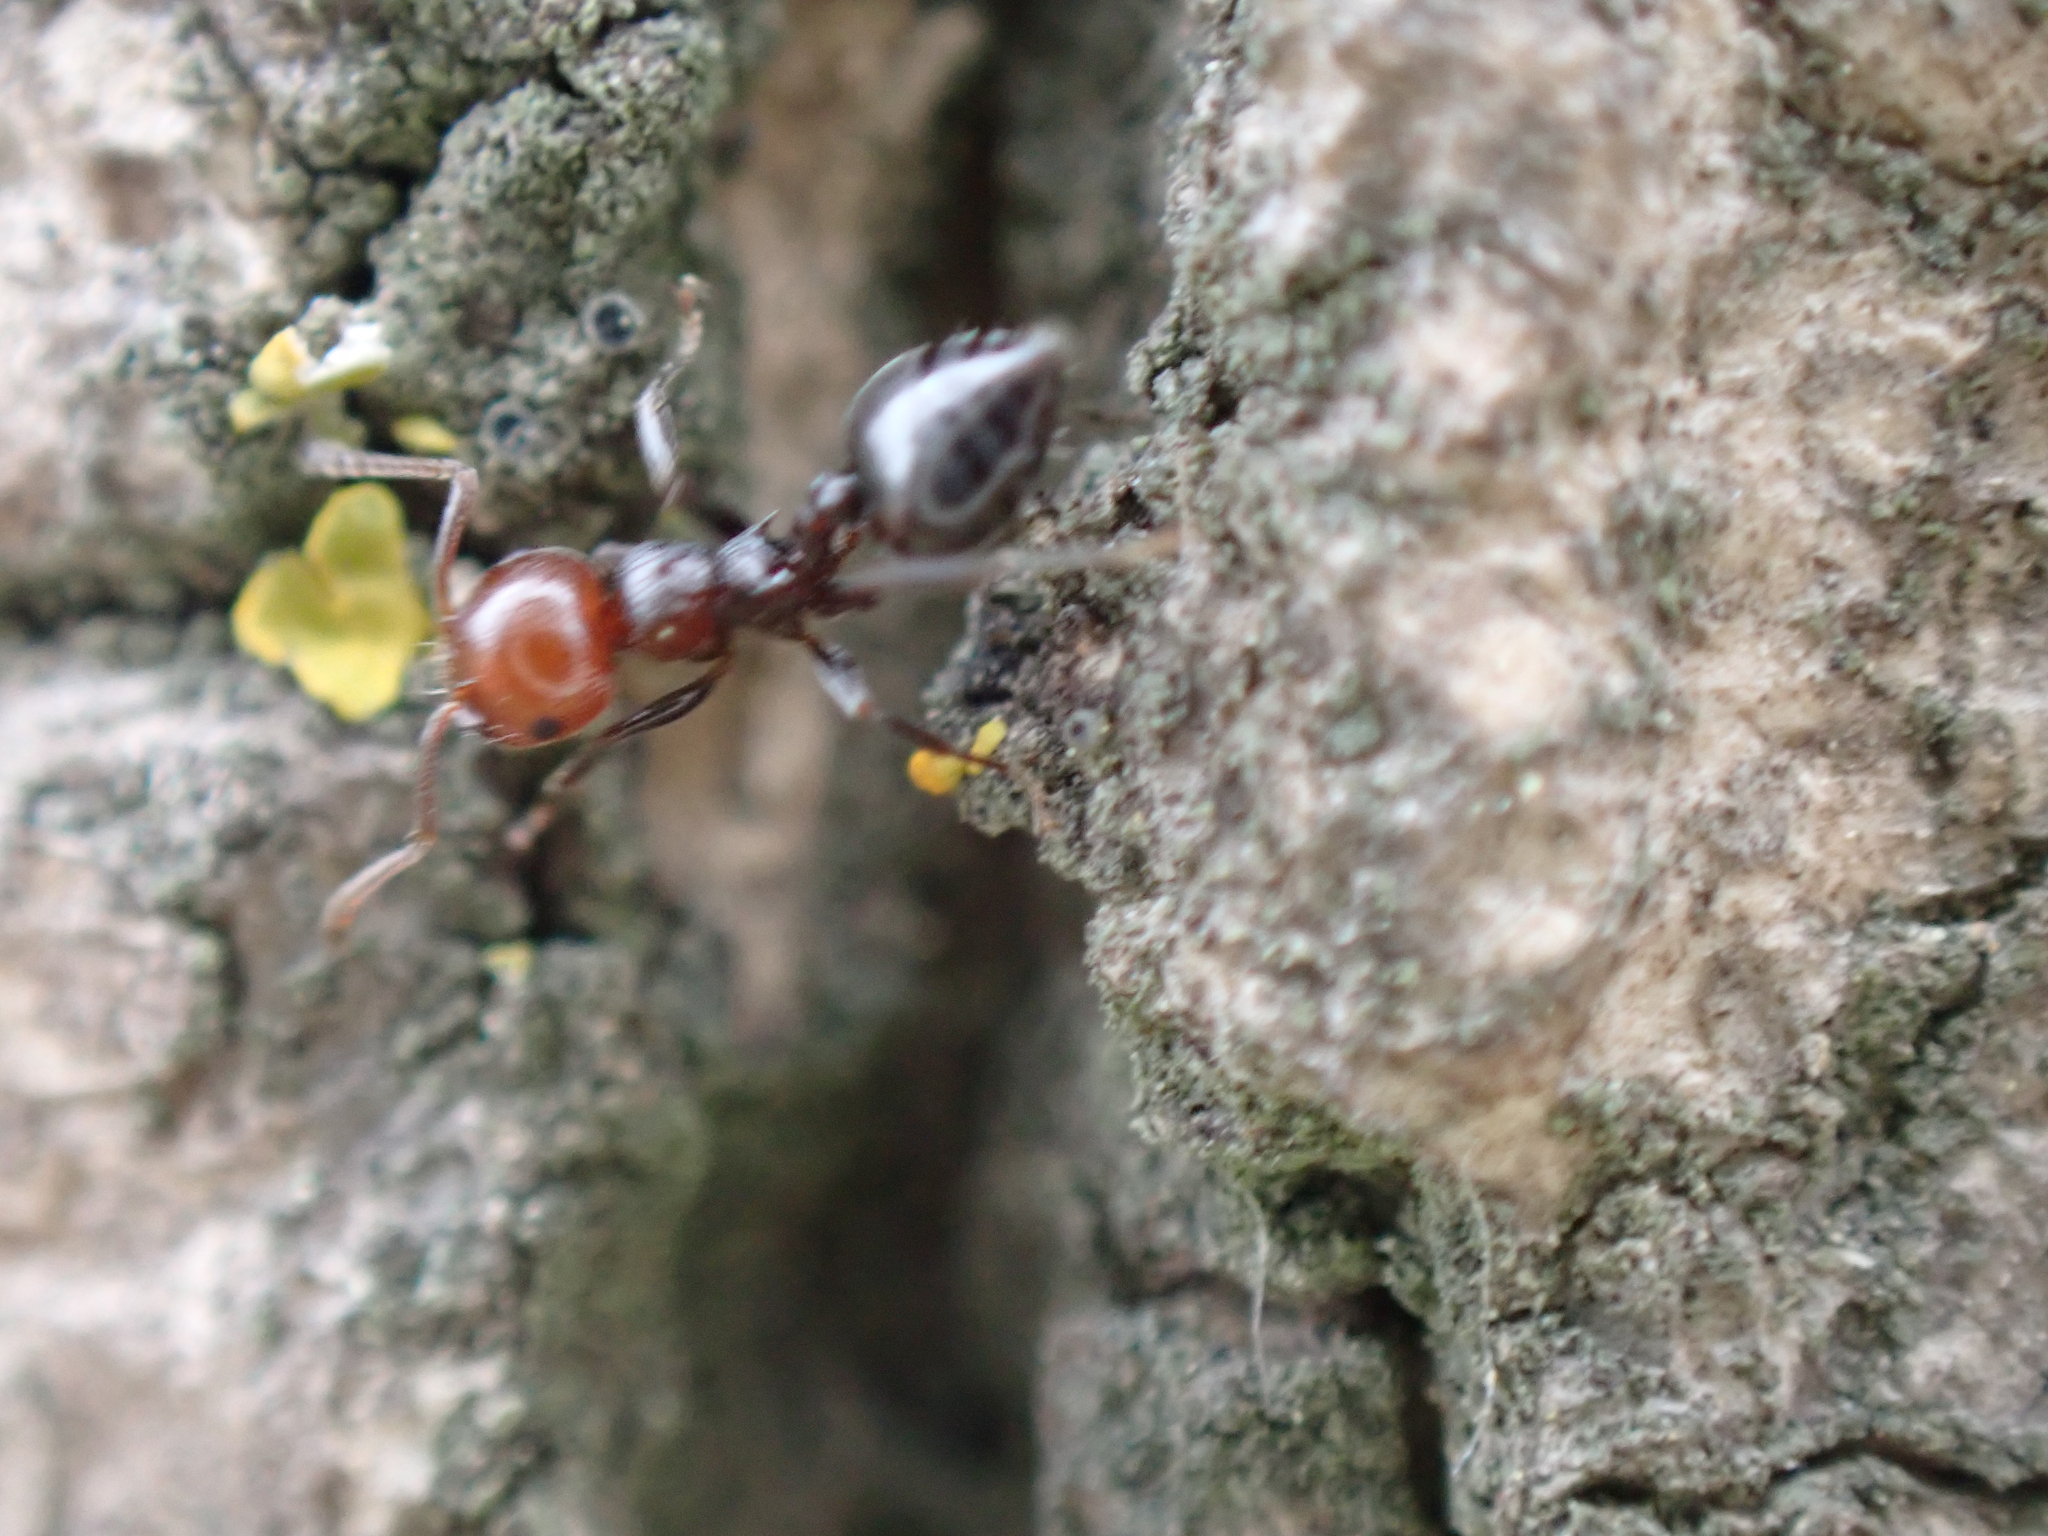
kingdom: Animalia
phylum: Arthropoda
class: Insecta
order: Hymenoptera
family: Formicidae
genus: Crematogaster
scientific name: Crematogaster scutellaris
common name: Fourmi du liège
